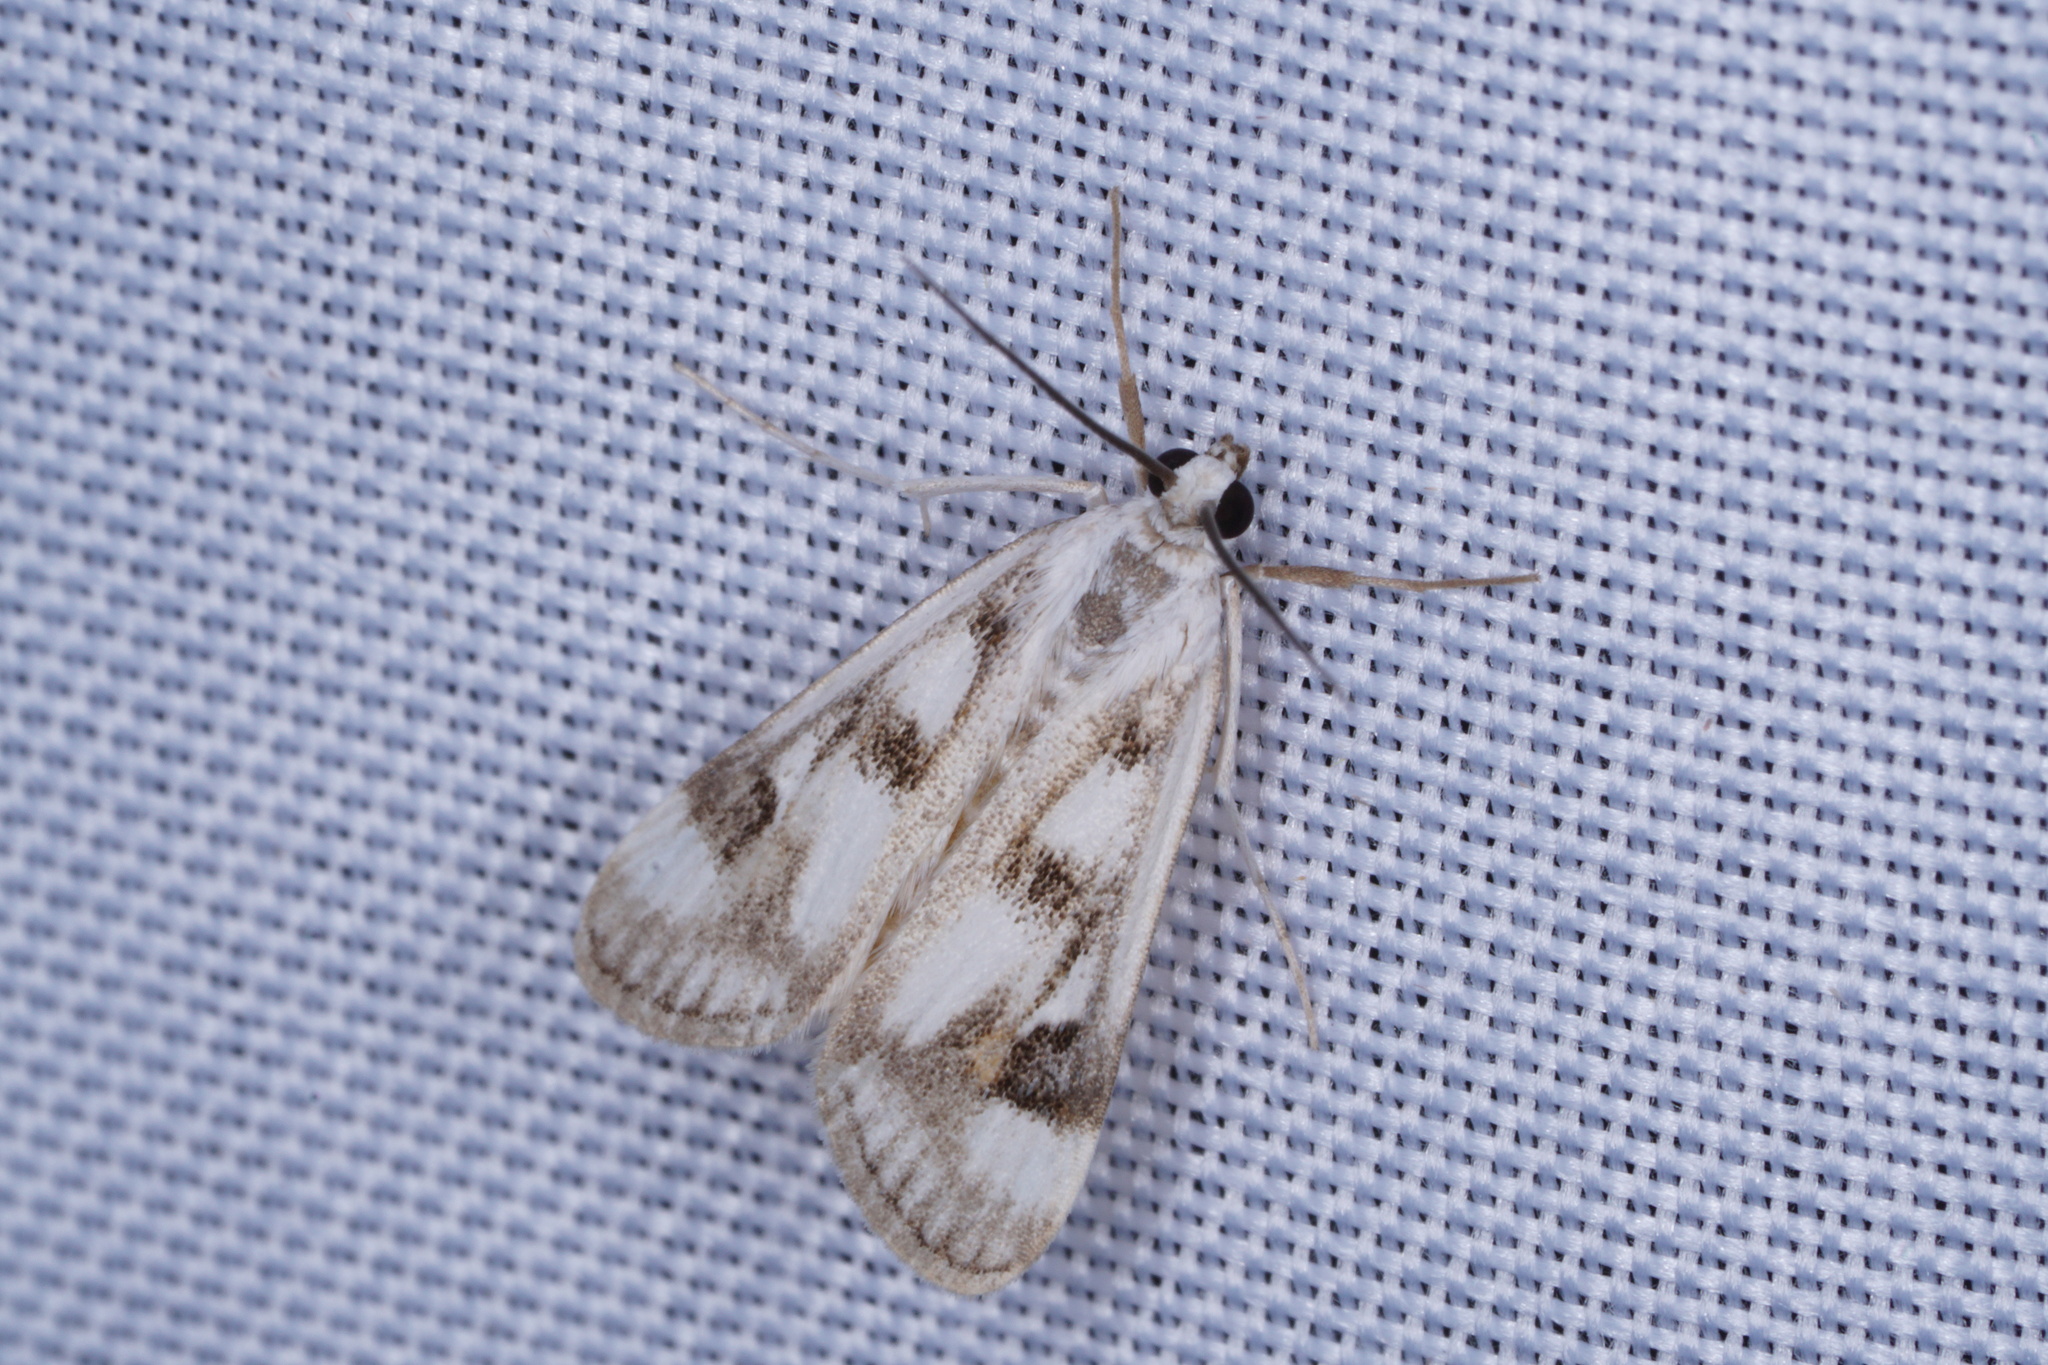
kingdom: Animalia
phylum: Arthropoda
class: Insecta
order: Lepidoptera
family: Crambidae
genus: Parapoynx
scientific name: Parapoynx maculalis
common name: Polymorphic pondweed moth
